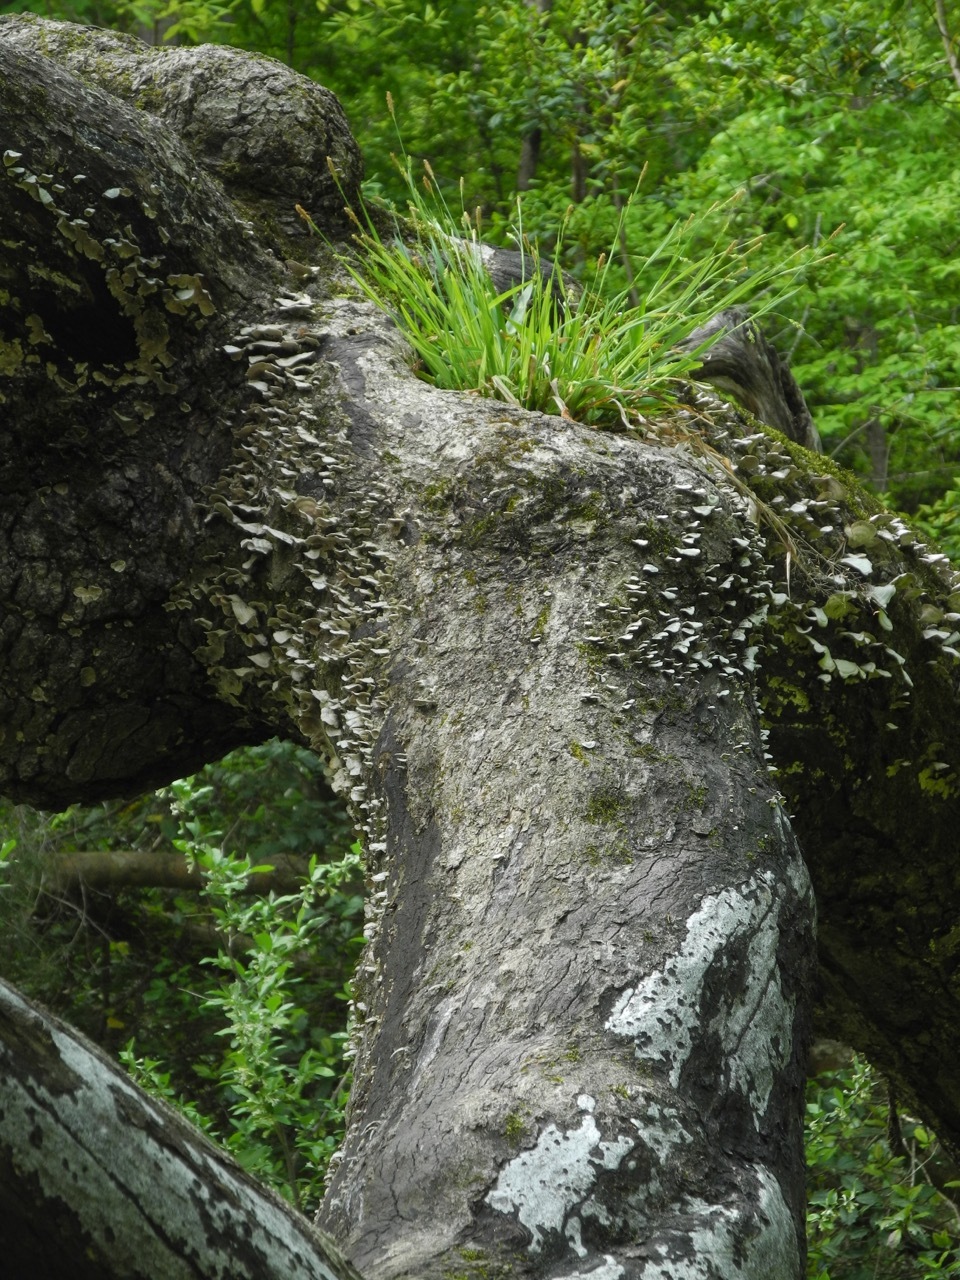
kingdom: Plantae
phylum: Tracheophyta
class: Liliopsida
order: Poales
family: Cyperaceae
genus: Carex
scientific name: Carex blanda
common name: Bland sedge
